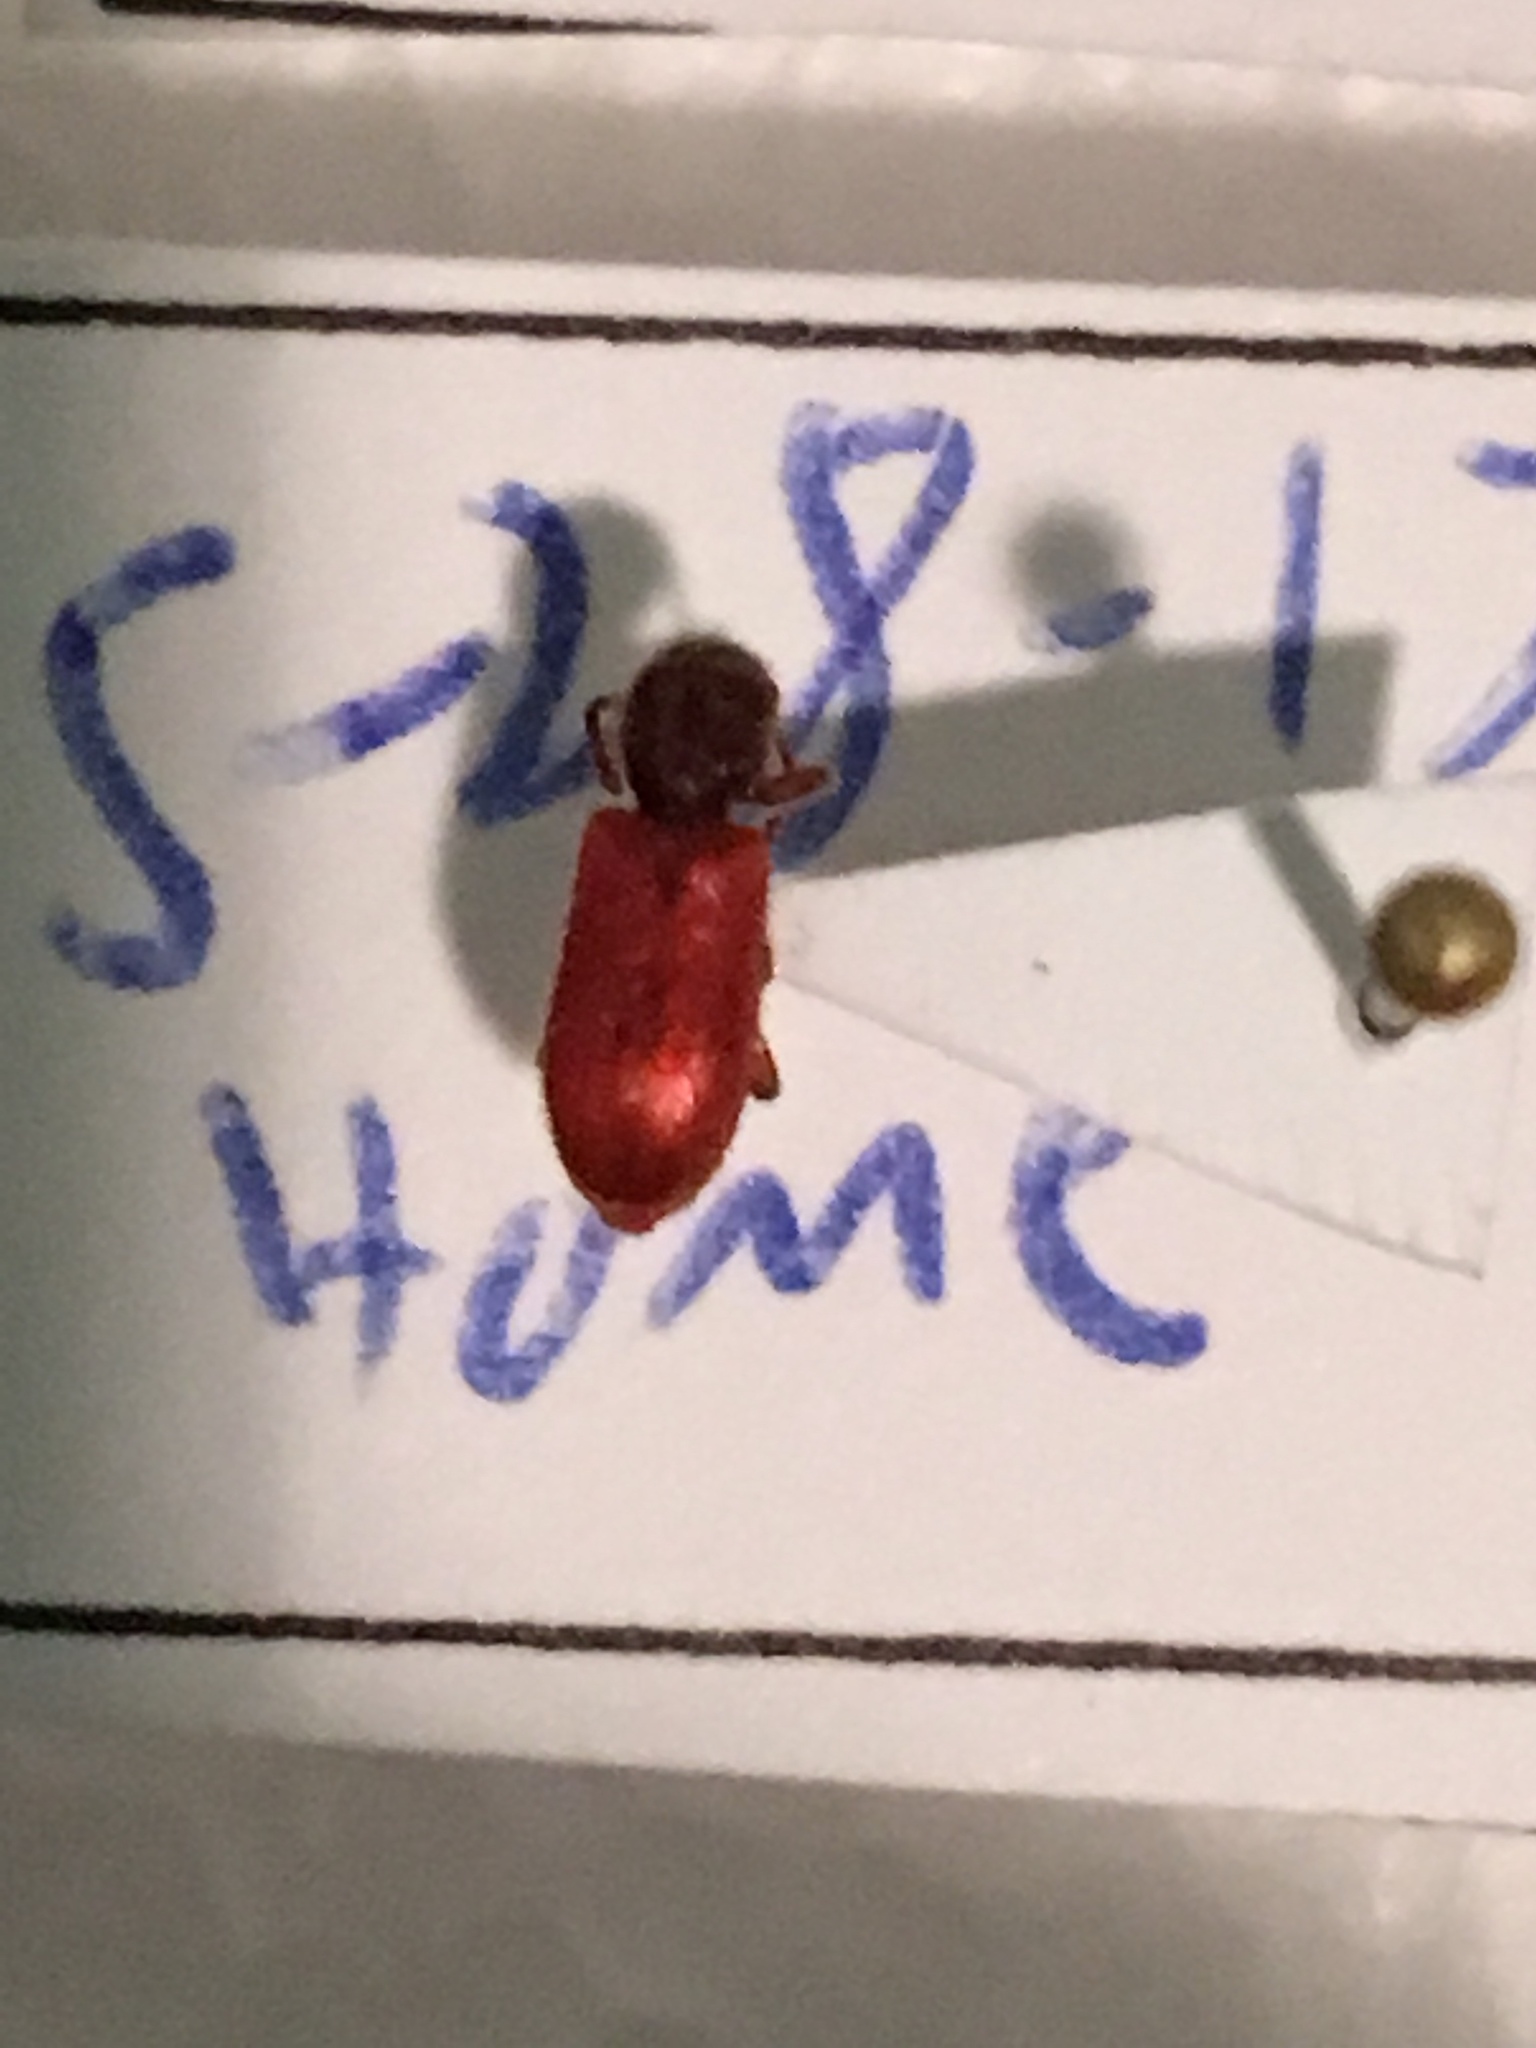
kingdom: Animalia
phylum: Arthropoda
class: Insecta
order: Coleoptera
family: Thanerocleridae
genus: Zenodosus
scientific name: Zenodosus sanguineus
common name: Blood-colored checkered beetle
